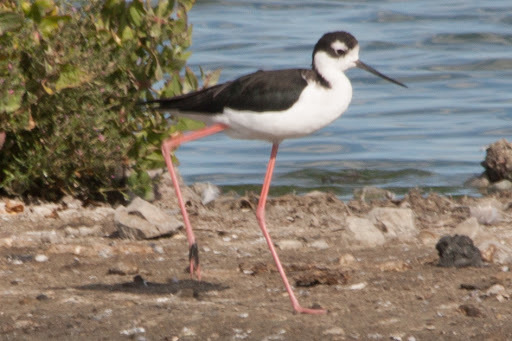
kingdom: Animalia
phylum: Chordata
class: Aves
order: Charadriiformes
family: Recurvirostridae
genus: Himantopus
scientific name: Himantopus mexicanus
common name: Black-necked stilt
